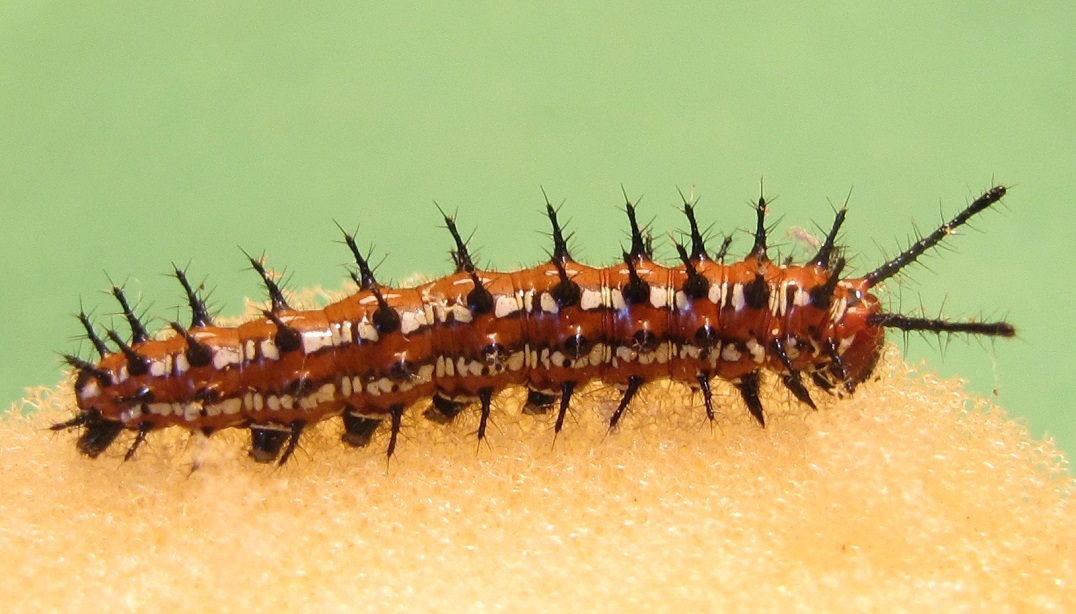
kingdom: Animalia
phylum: Arthropoda
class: Insecta
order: Lepidoptera
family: Nymphalidae
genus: Euptoieta
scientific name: Euptoieta claudia
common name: Variegated fritillary
